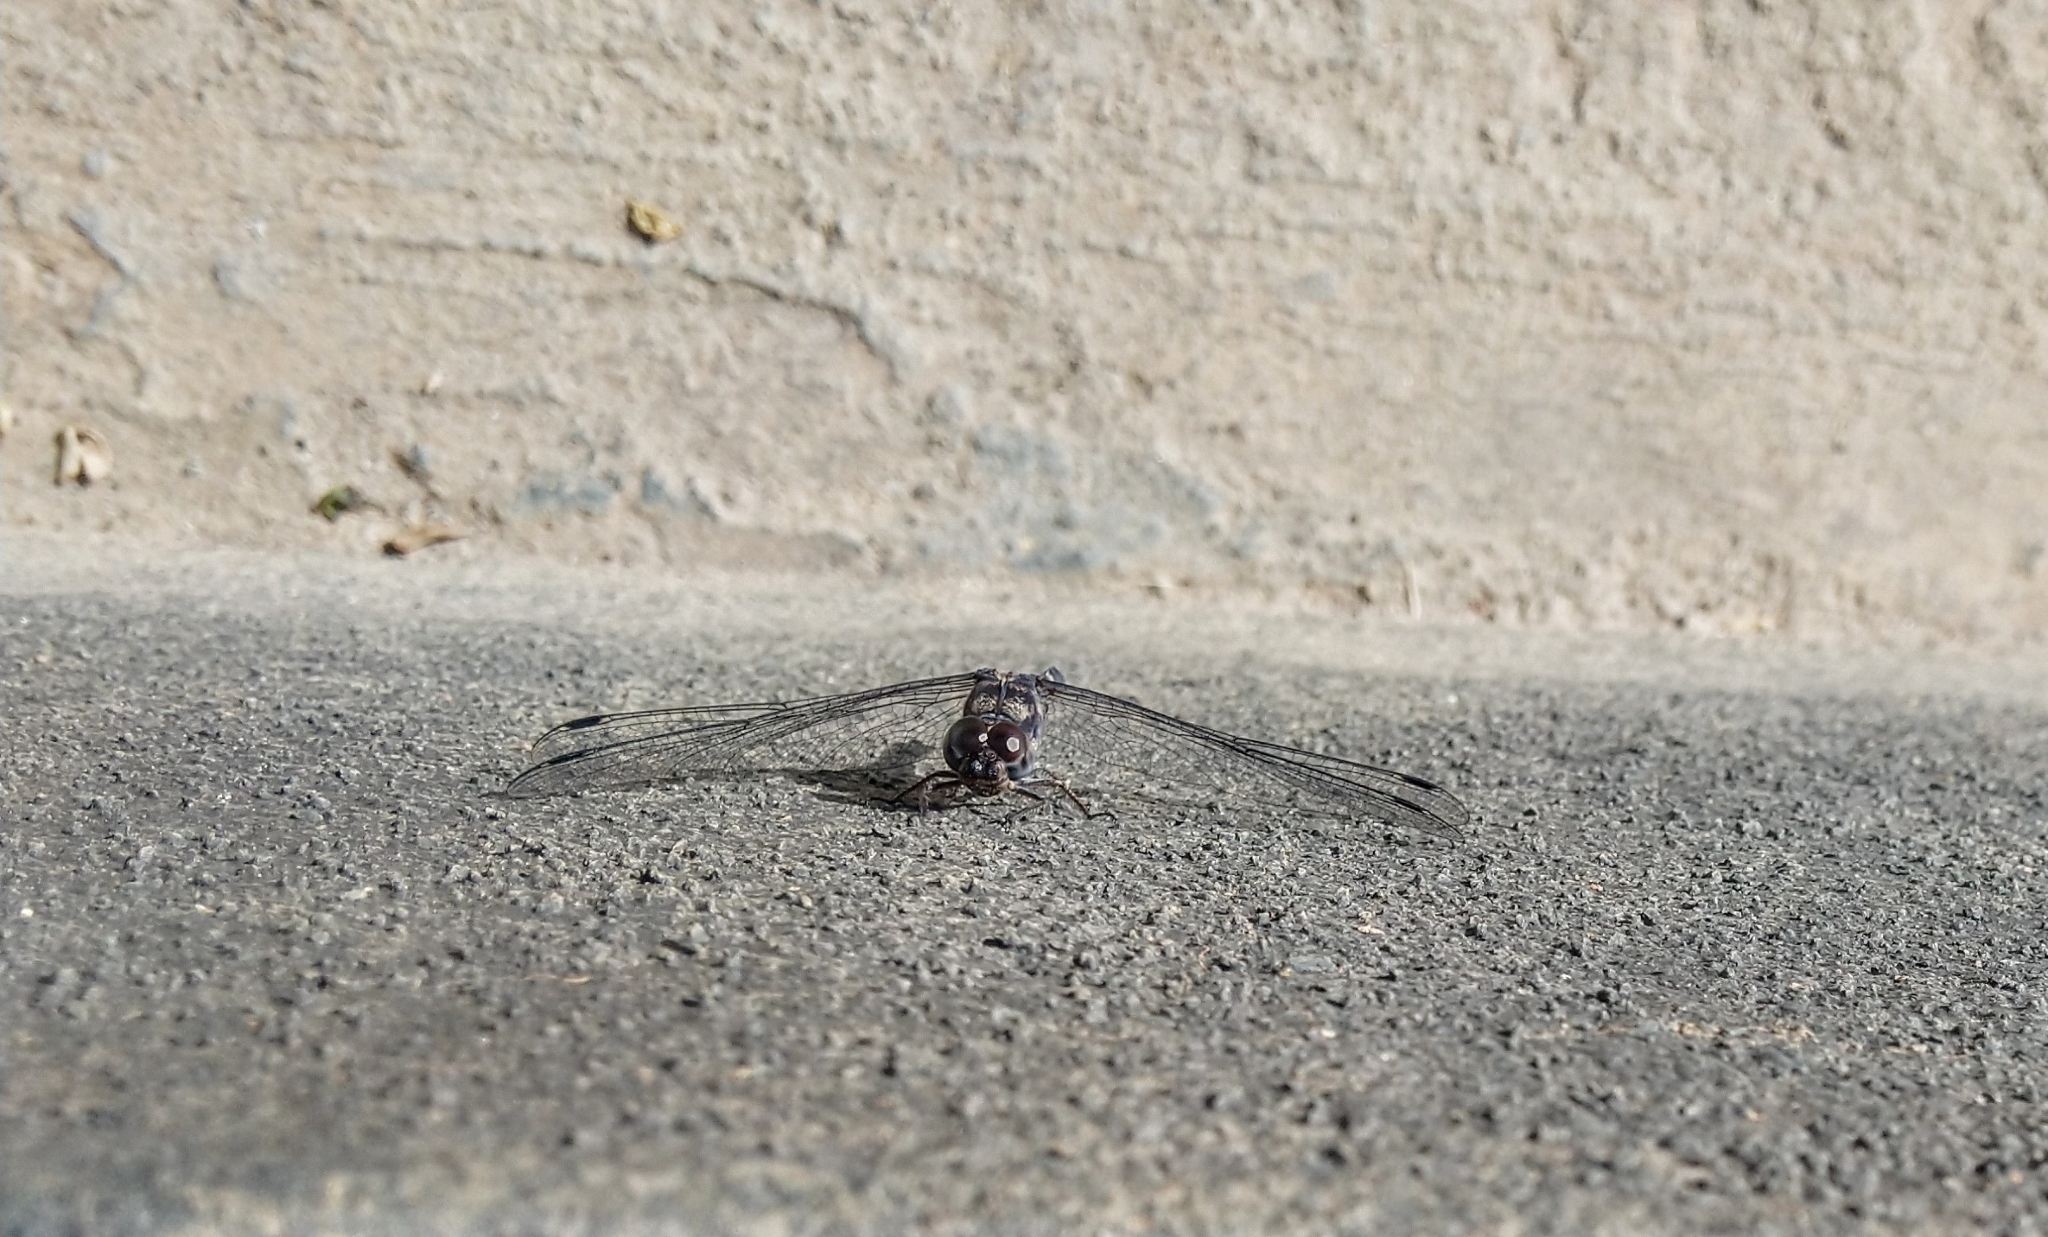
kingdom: Animalia
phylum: Arthropoda
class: Insecta
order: Odonata
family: Libellulidae
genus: Bradinopyga
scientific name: Bradinopyga geminata
